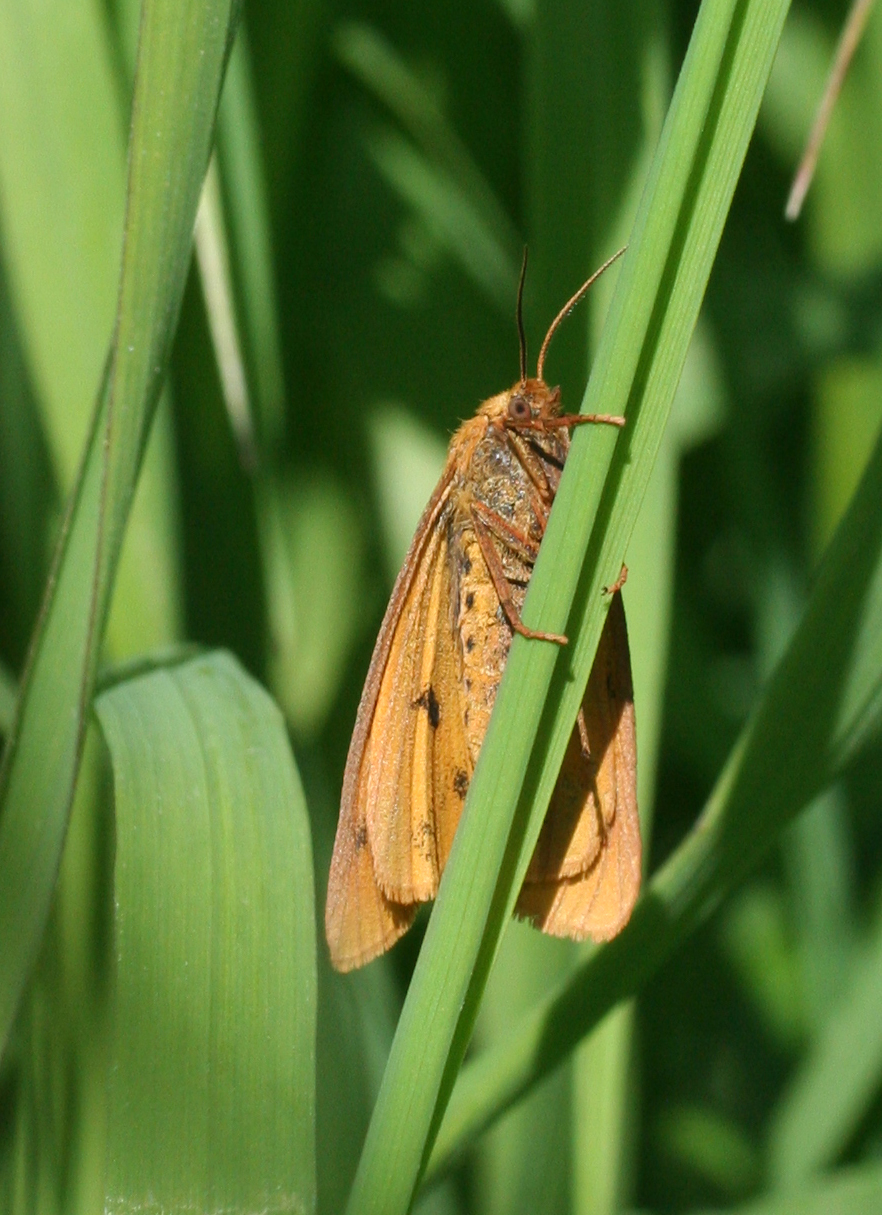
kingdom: Animalia
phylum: Arthropoda
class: Insecta
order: Lepidoptera
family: Erebidae
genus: Diacrisia
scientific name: Diacrisia sannio
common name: Clouded buff
